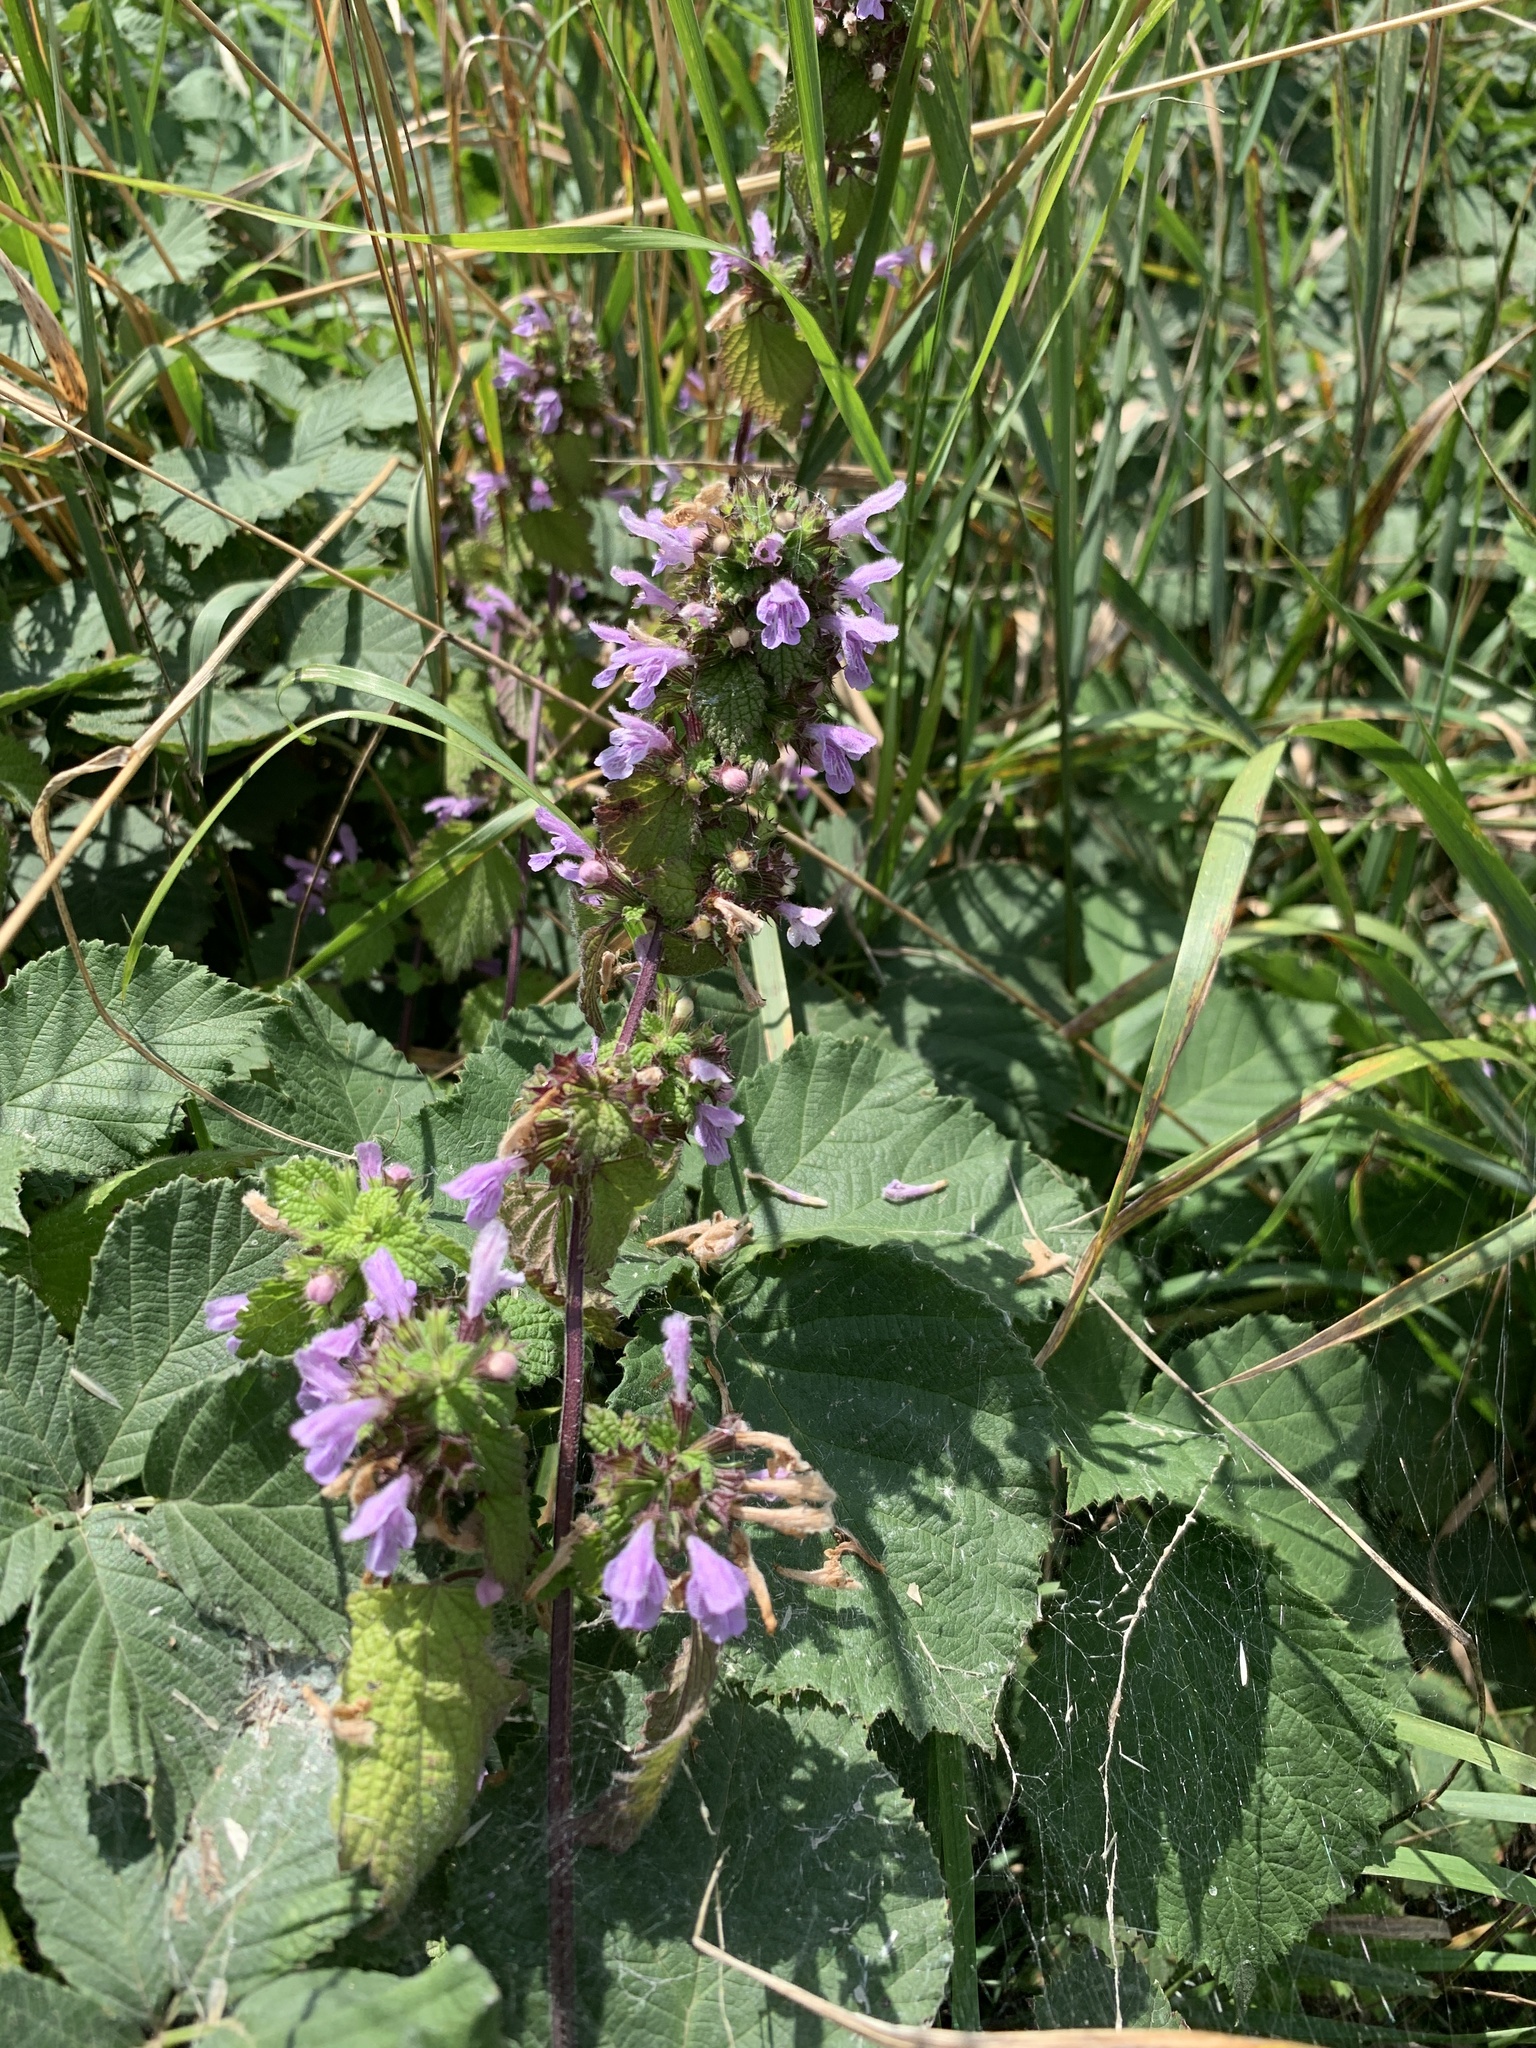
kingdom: Plantae
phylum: Tracheophyta
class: Magnoliopsida
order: Lamiales
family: Lamiaceae
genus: Ballota
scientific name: Ballota nigra
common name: Black horehound
